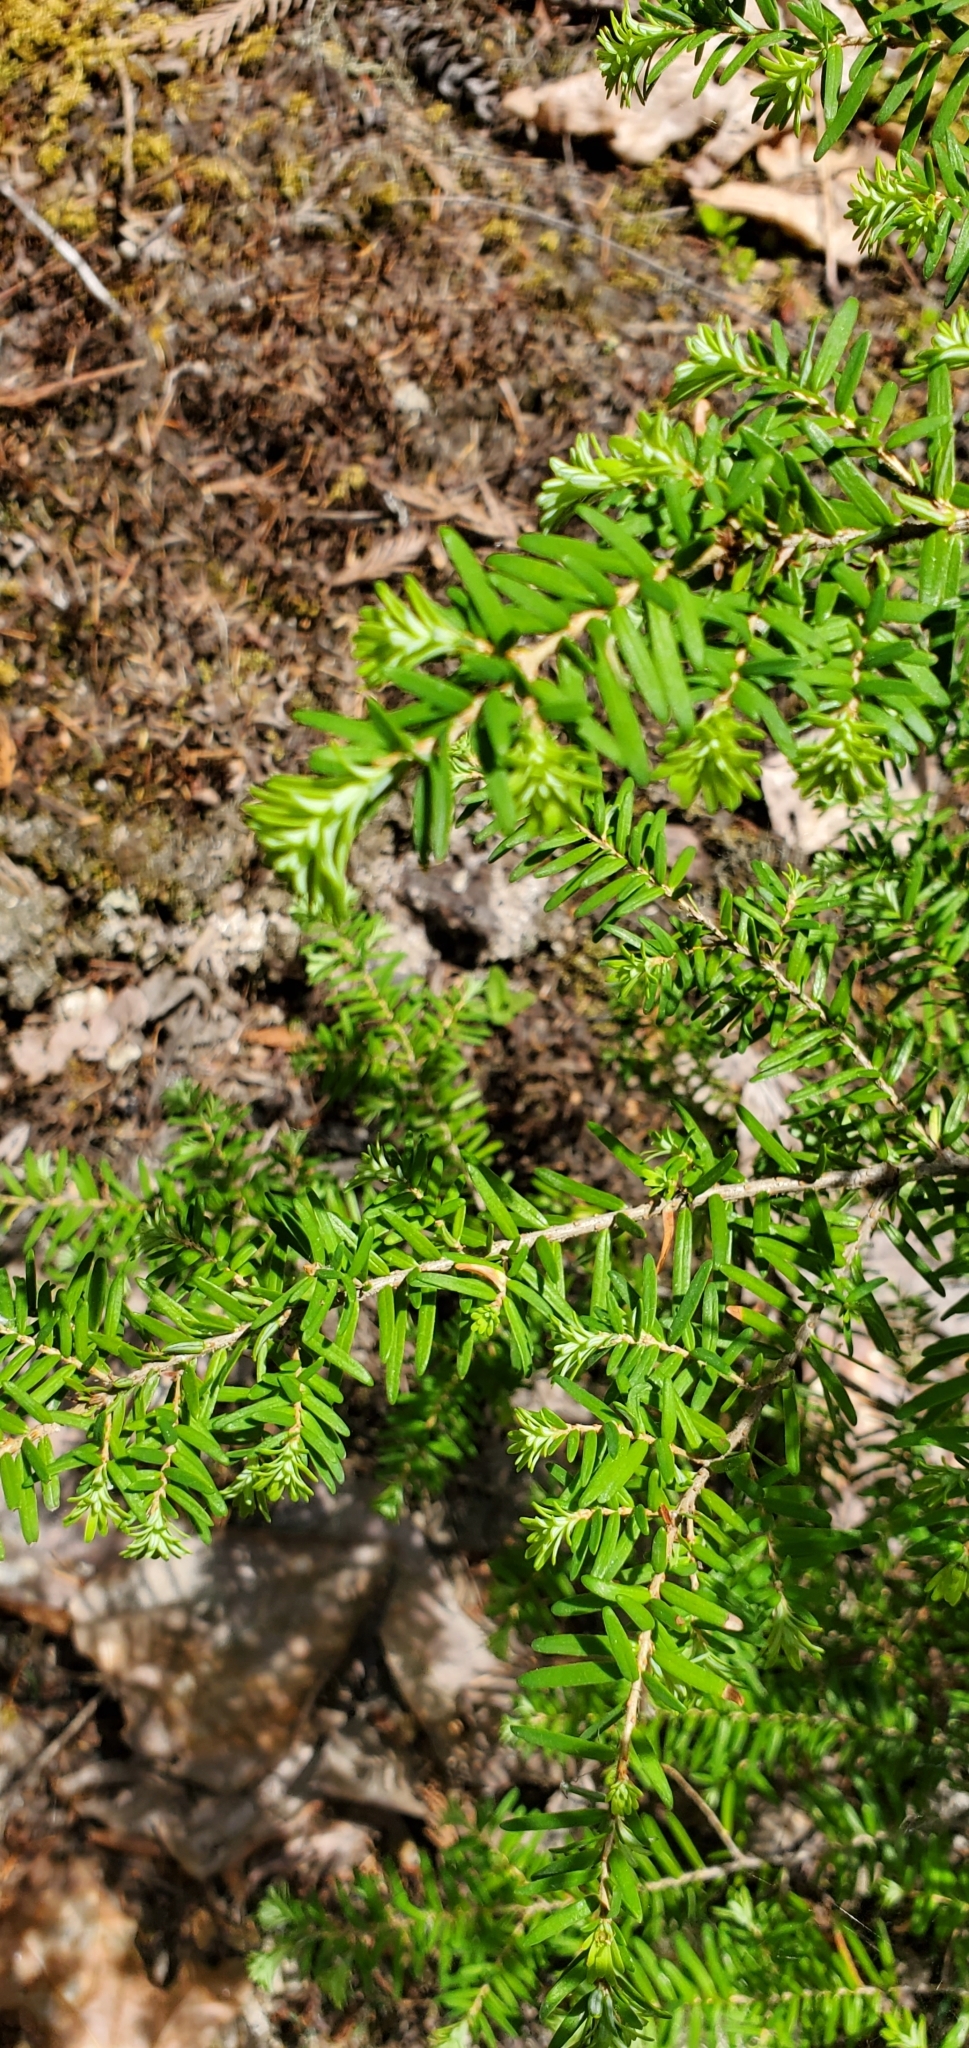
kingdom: Plantae
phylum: Tracheophyta
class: Pinopsida
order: Pinales
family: Pinaceae
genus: Tsuga
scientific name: Tsuga heterophylla
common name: Western hemlock
